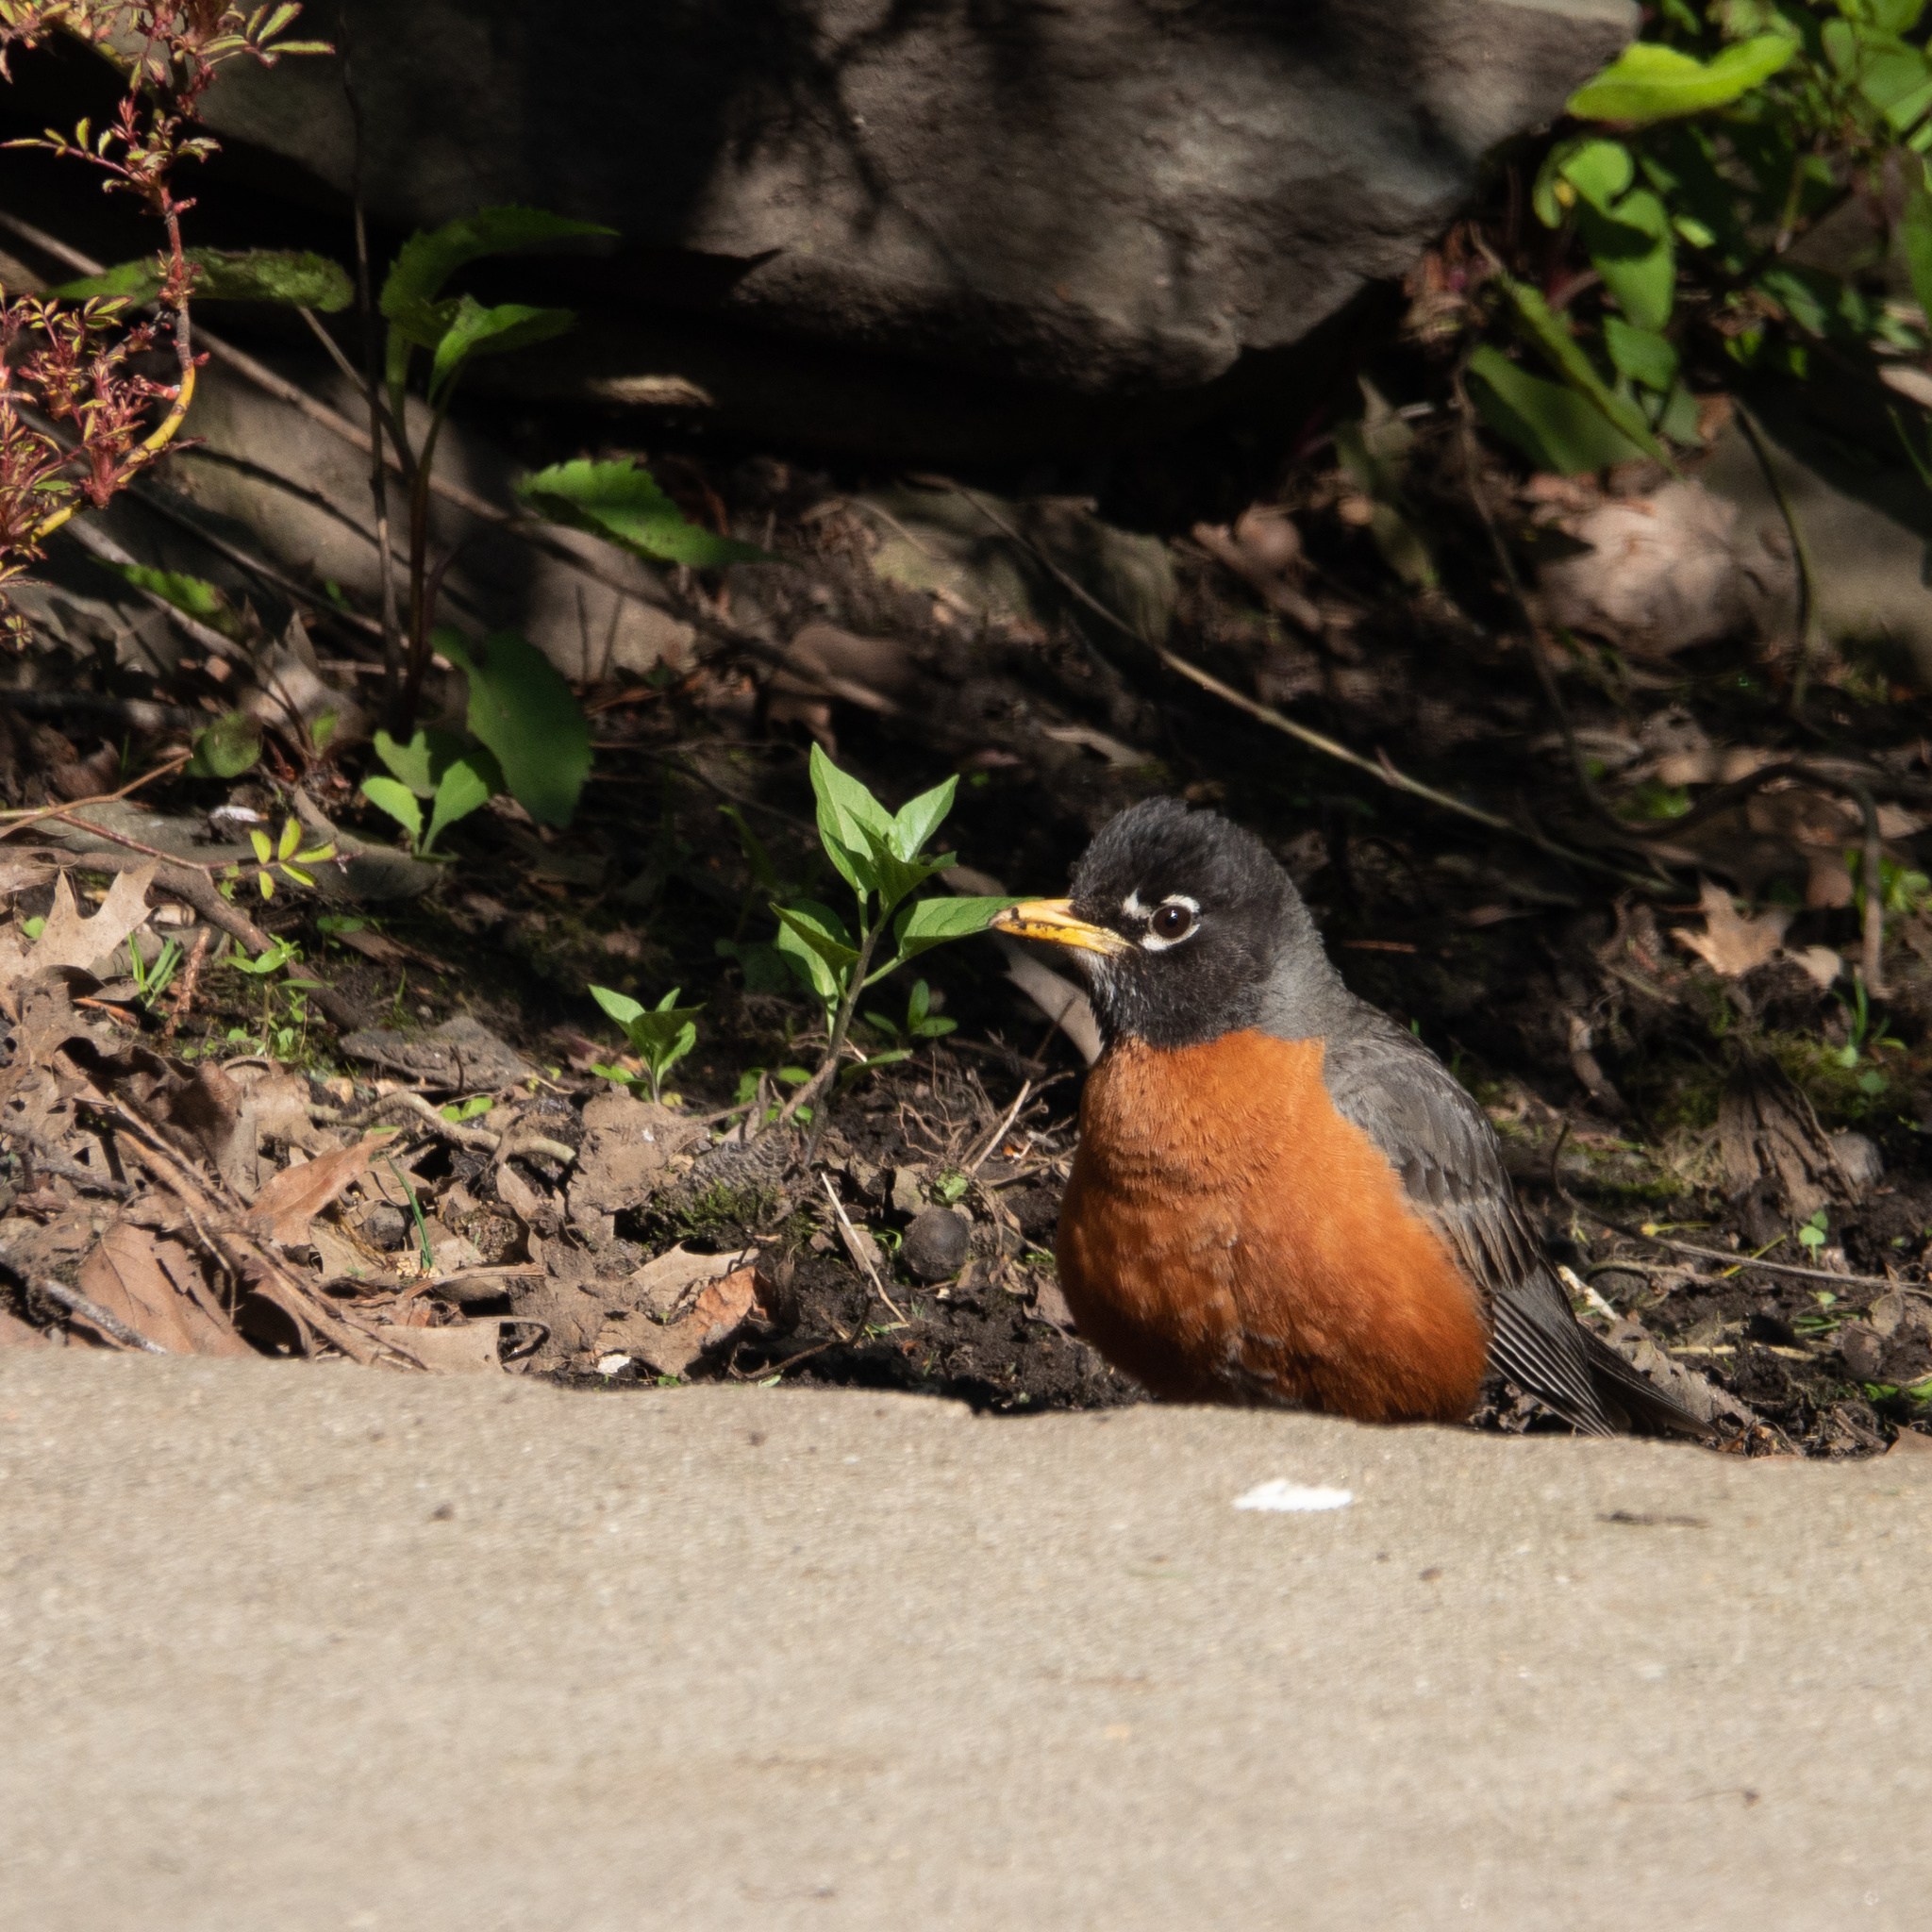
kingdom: Animalia
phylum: Chordata
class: Aves
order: Passeriformes
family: Turdidae
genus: Turdus
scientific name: Turdus migratorius
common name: American robin
